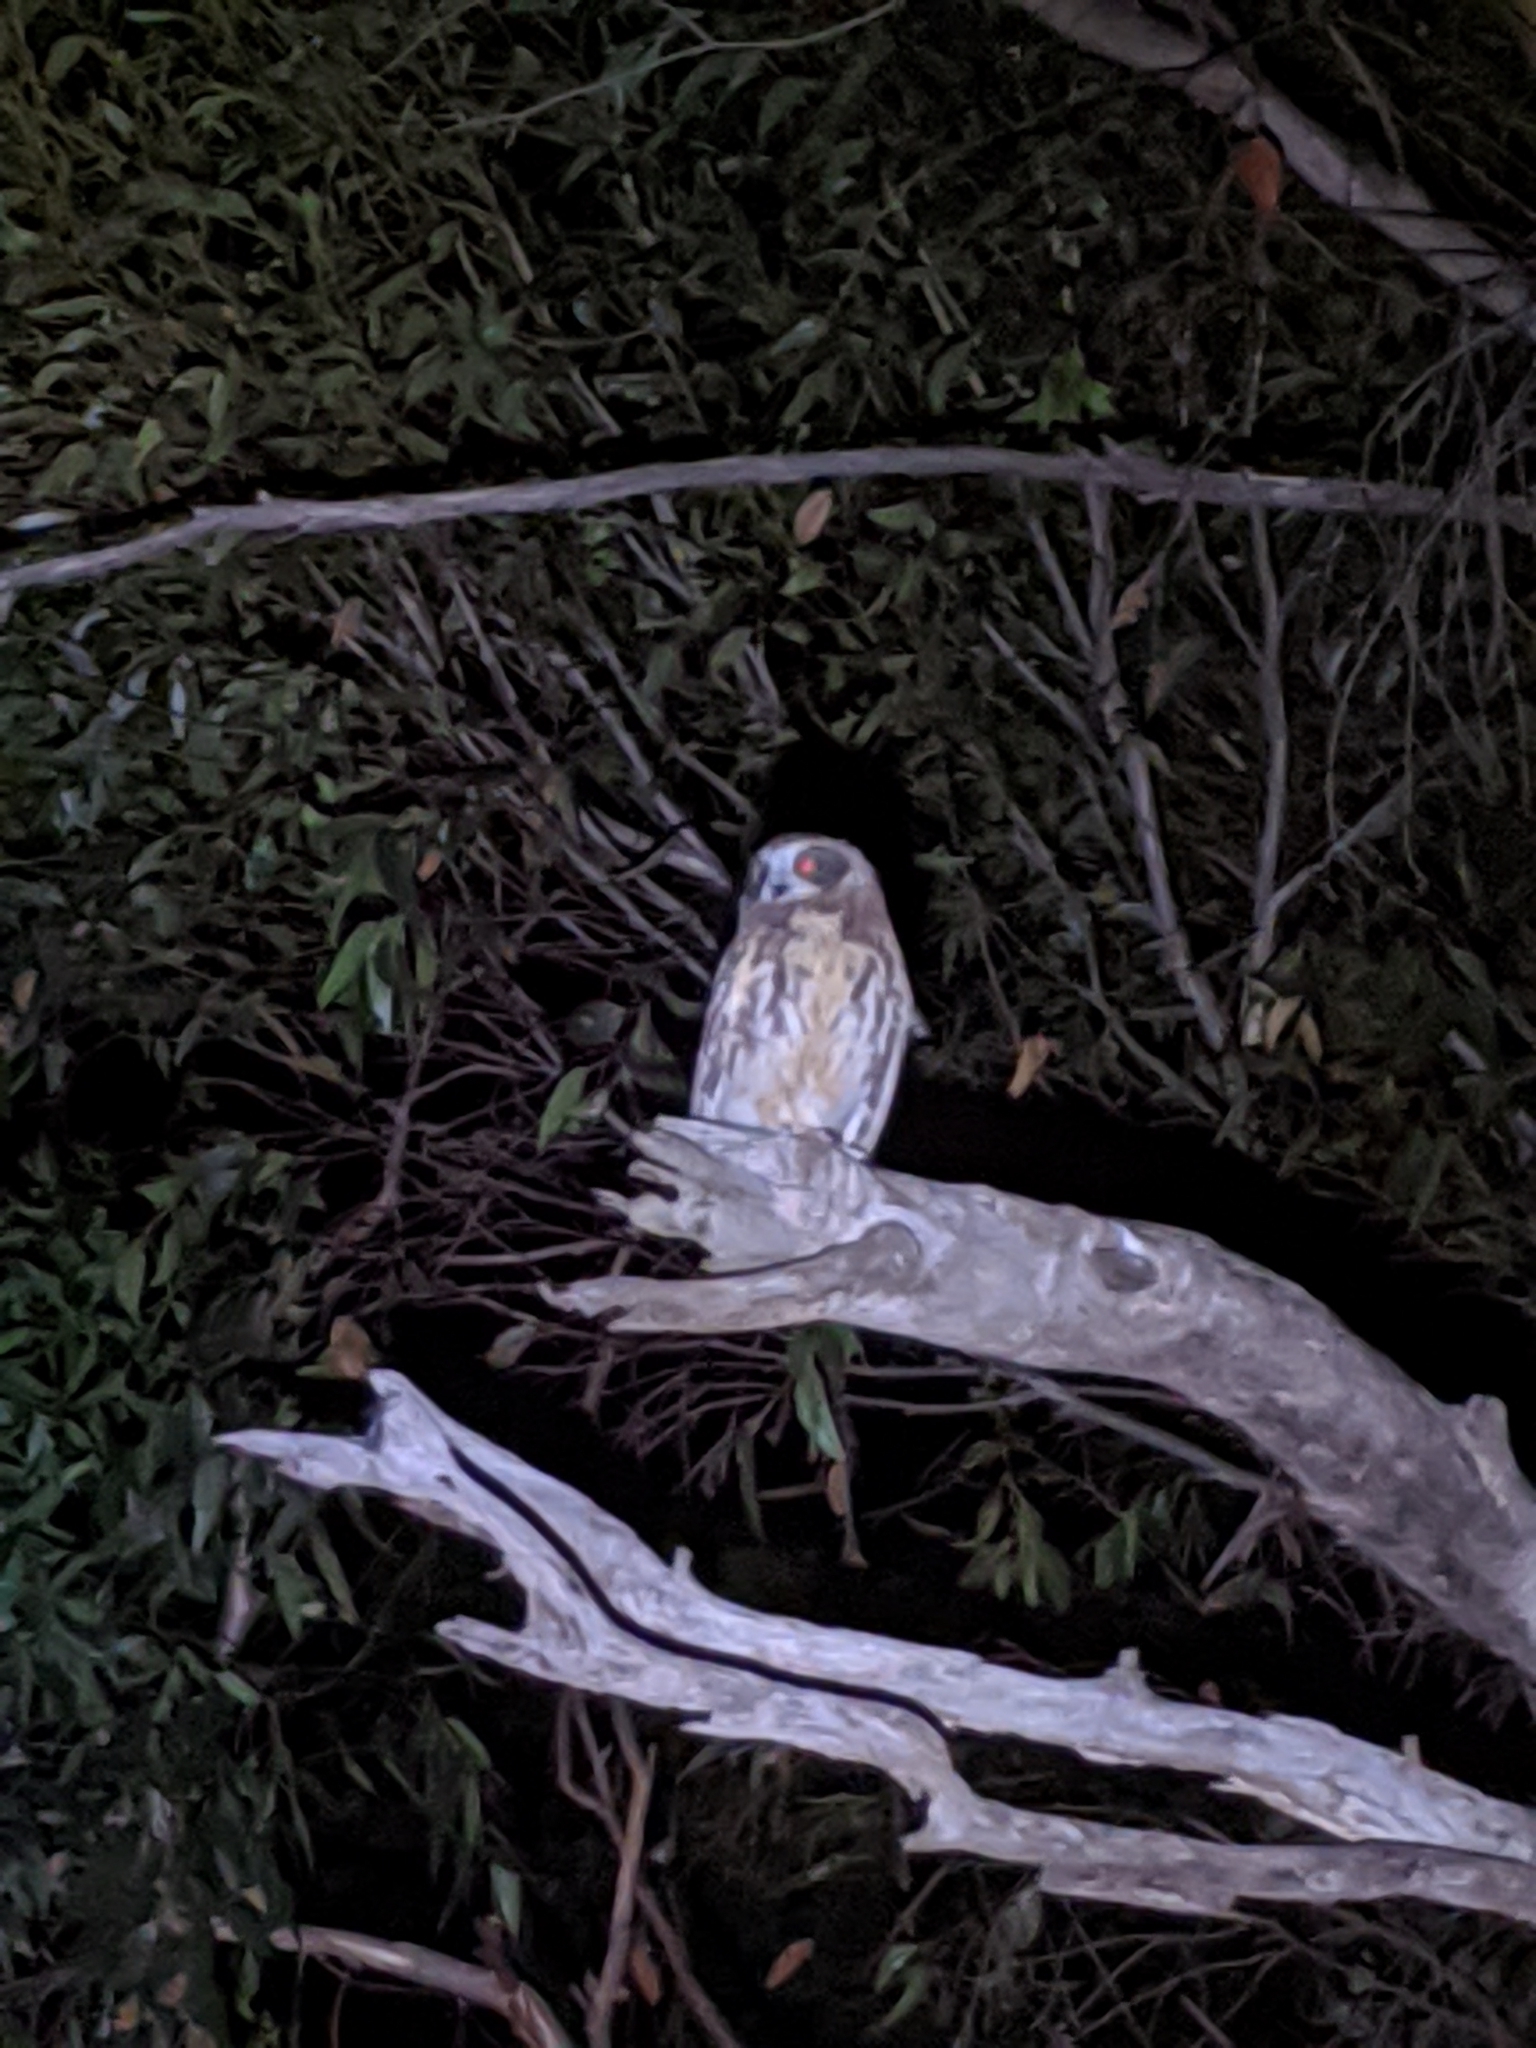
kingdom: Animalia
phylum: Chordata
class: Aves
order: Strigiformes
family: Strigidae
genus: Ninox
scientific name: Ninox boobook
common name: Southern boobook
